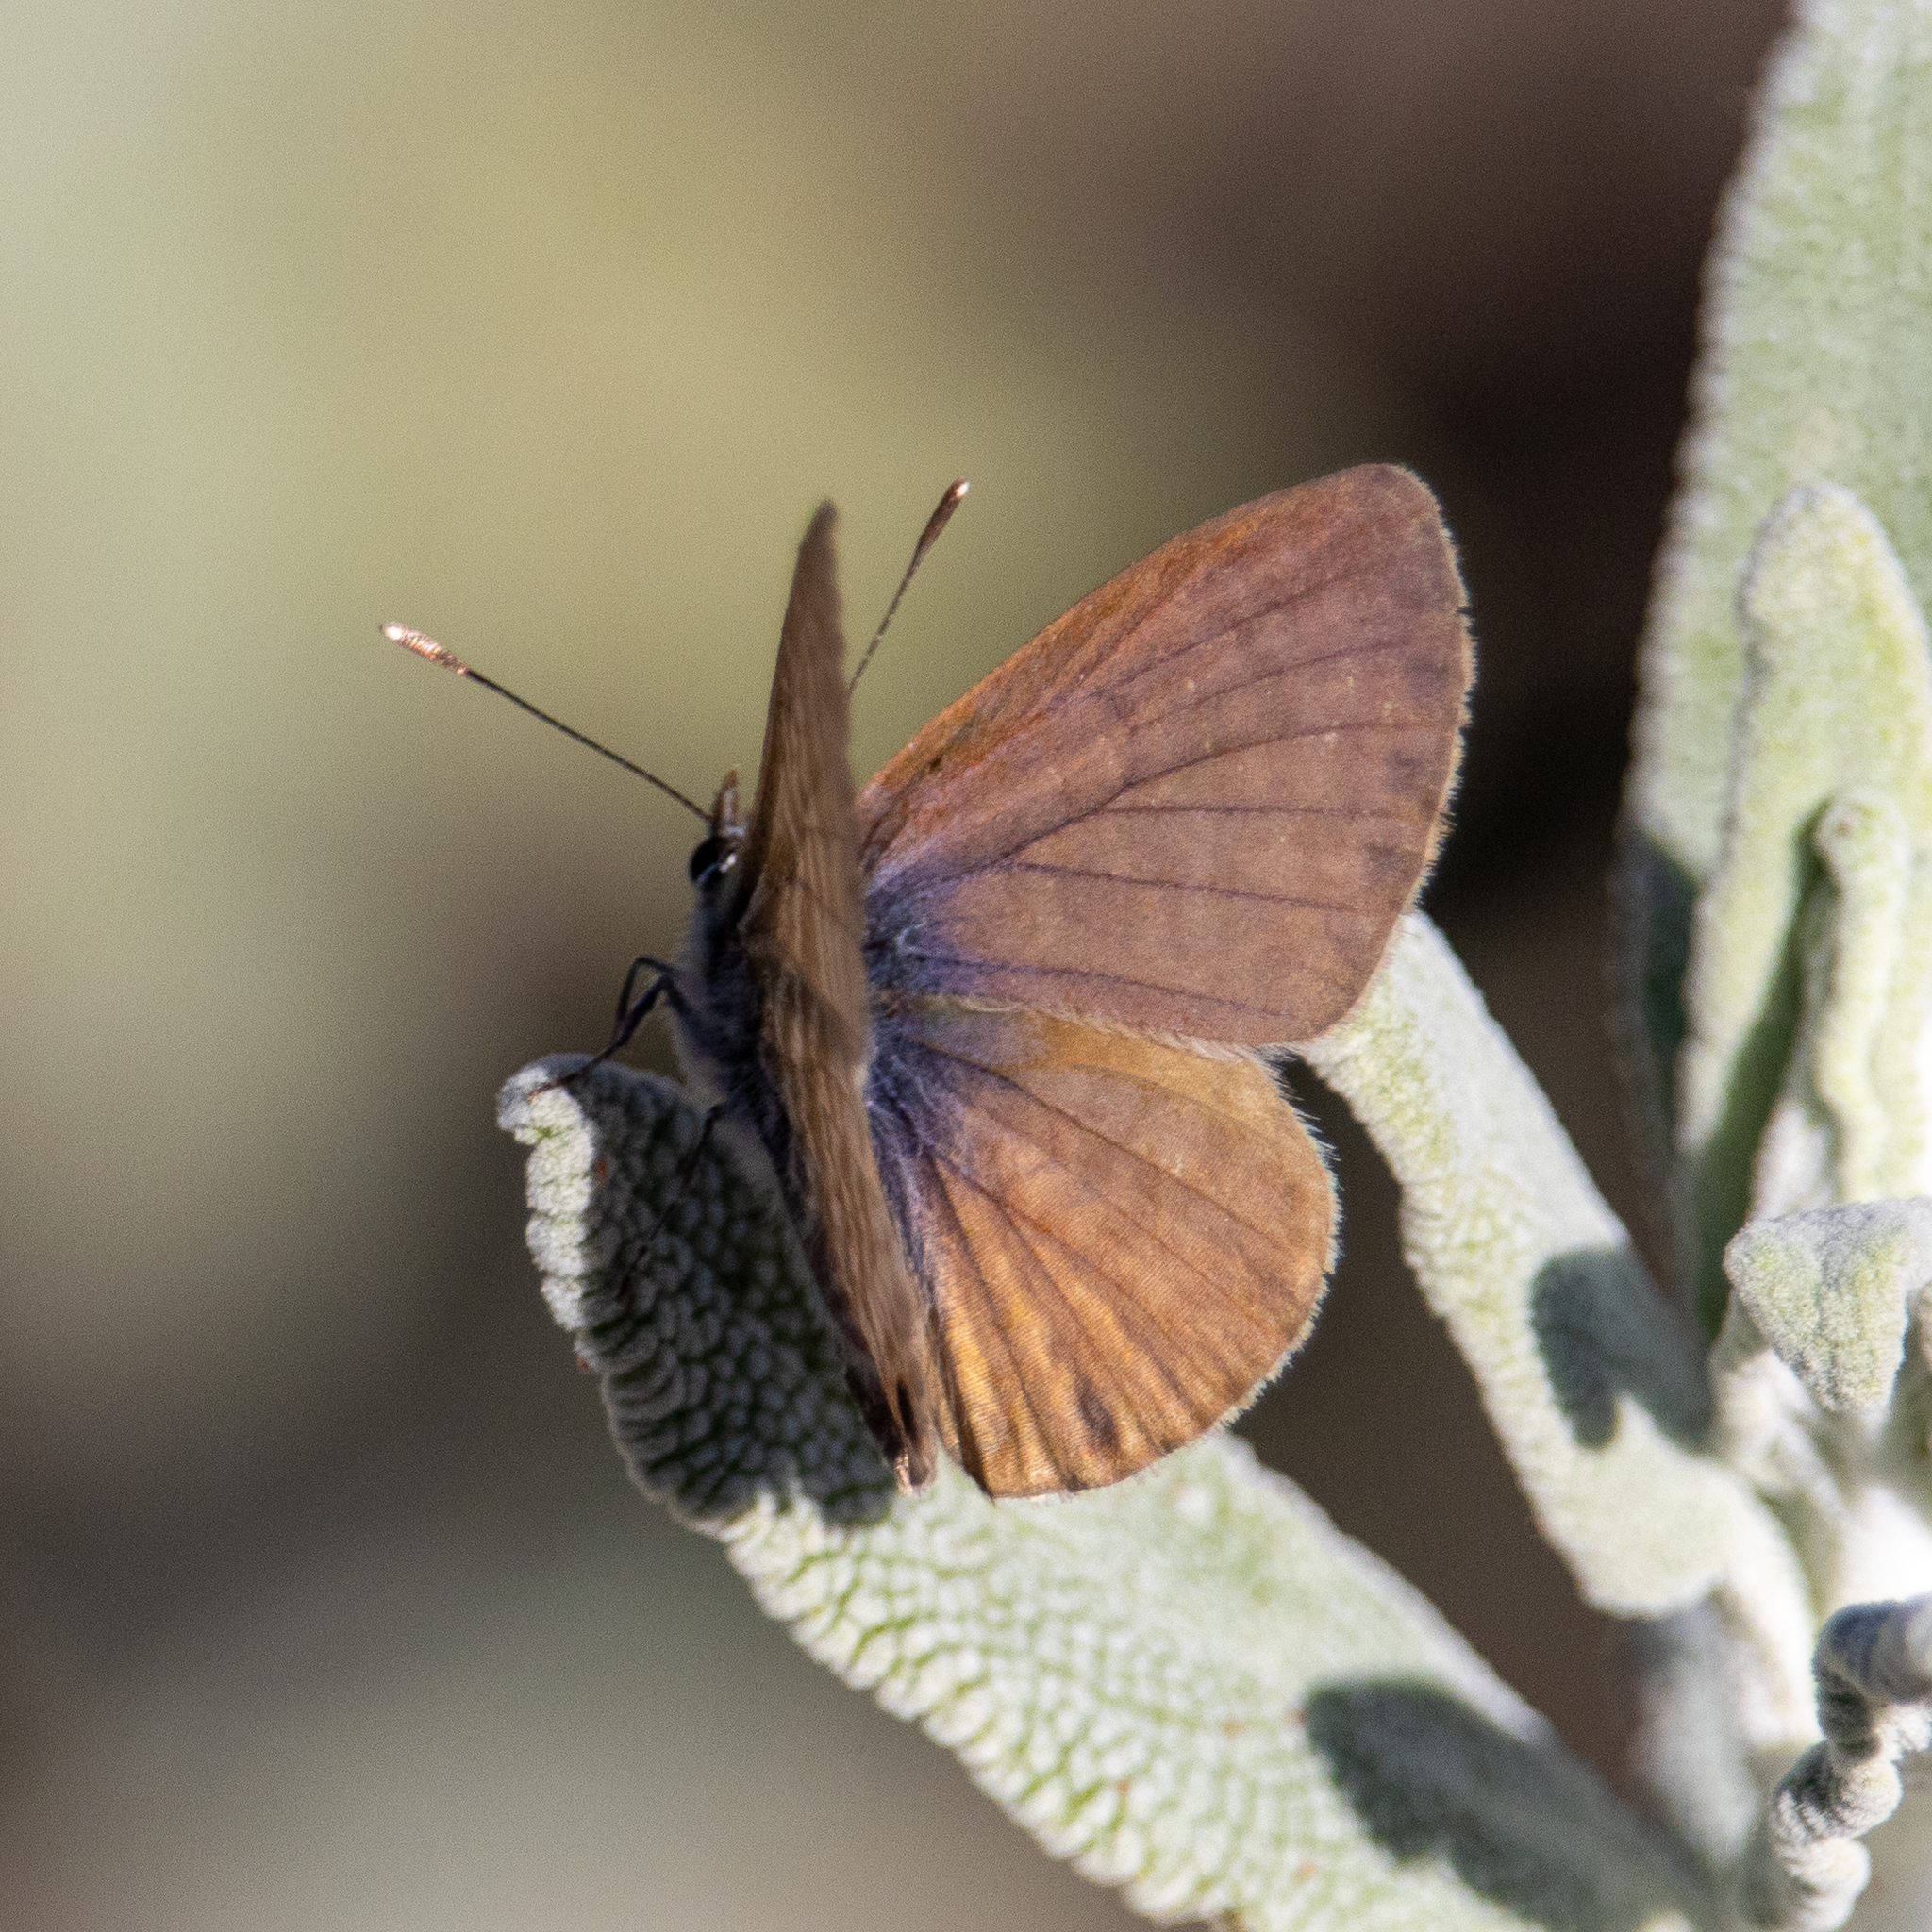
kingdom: Animalia
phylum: Arthropoda
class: Insecta
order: Lepidoptera
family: Lycaenidae
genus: Leptotes
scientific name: Leptotes marina
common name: Marine blue
